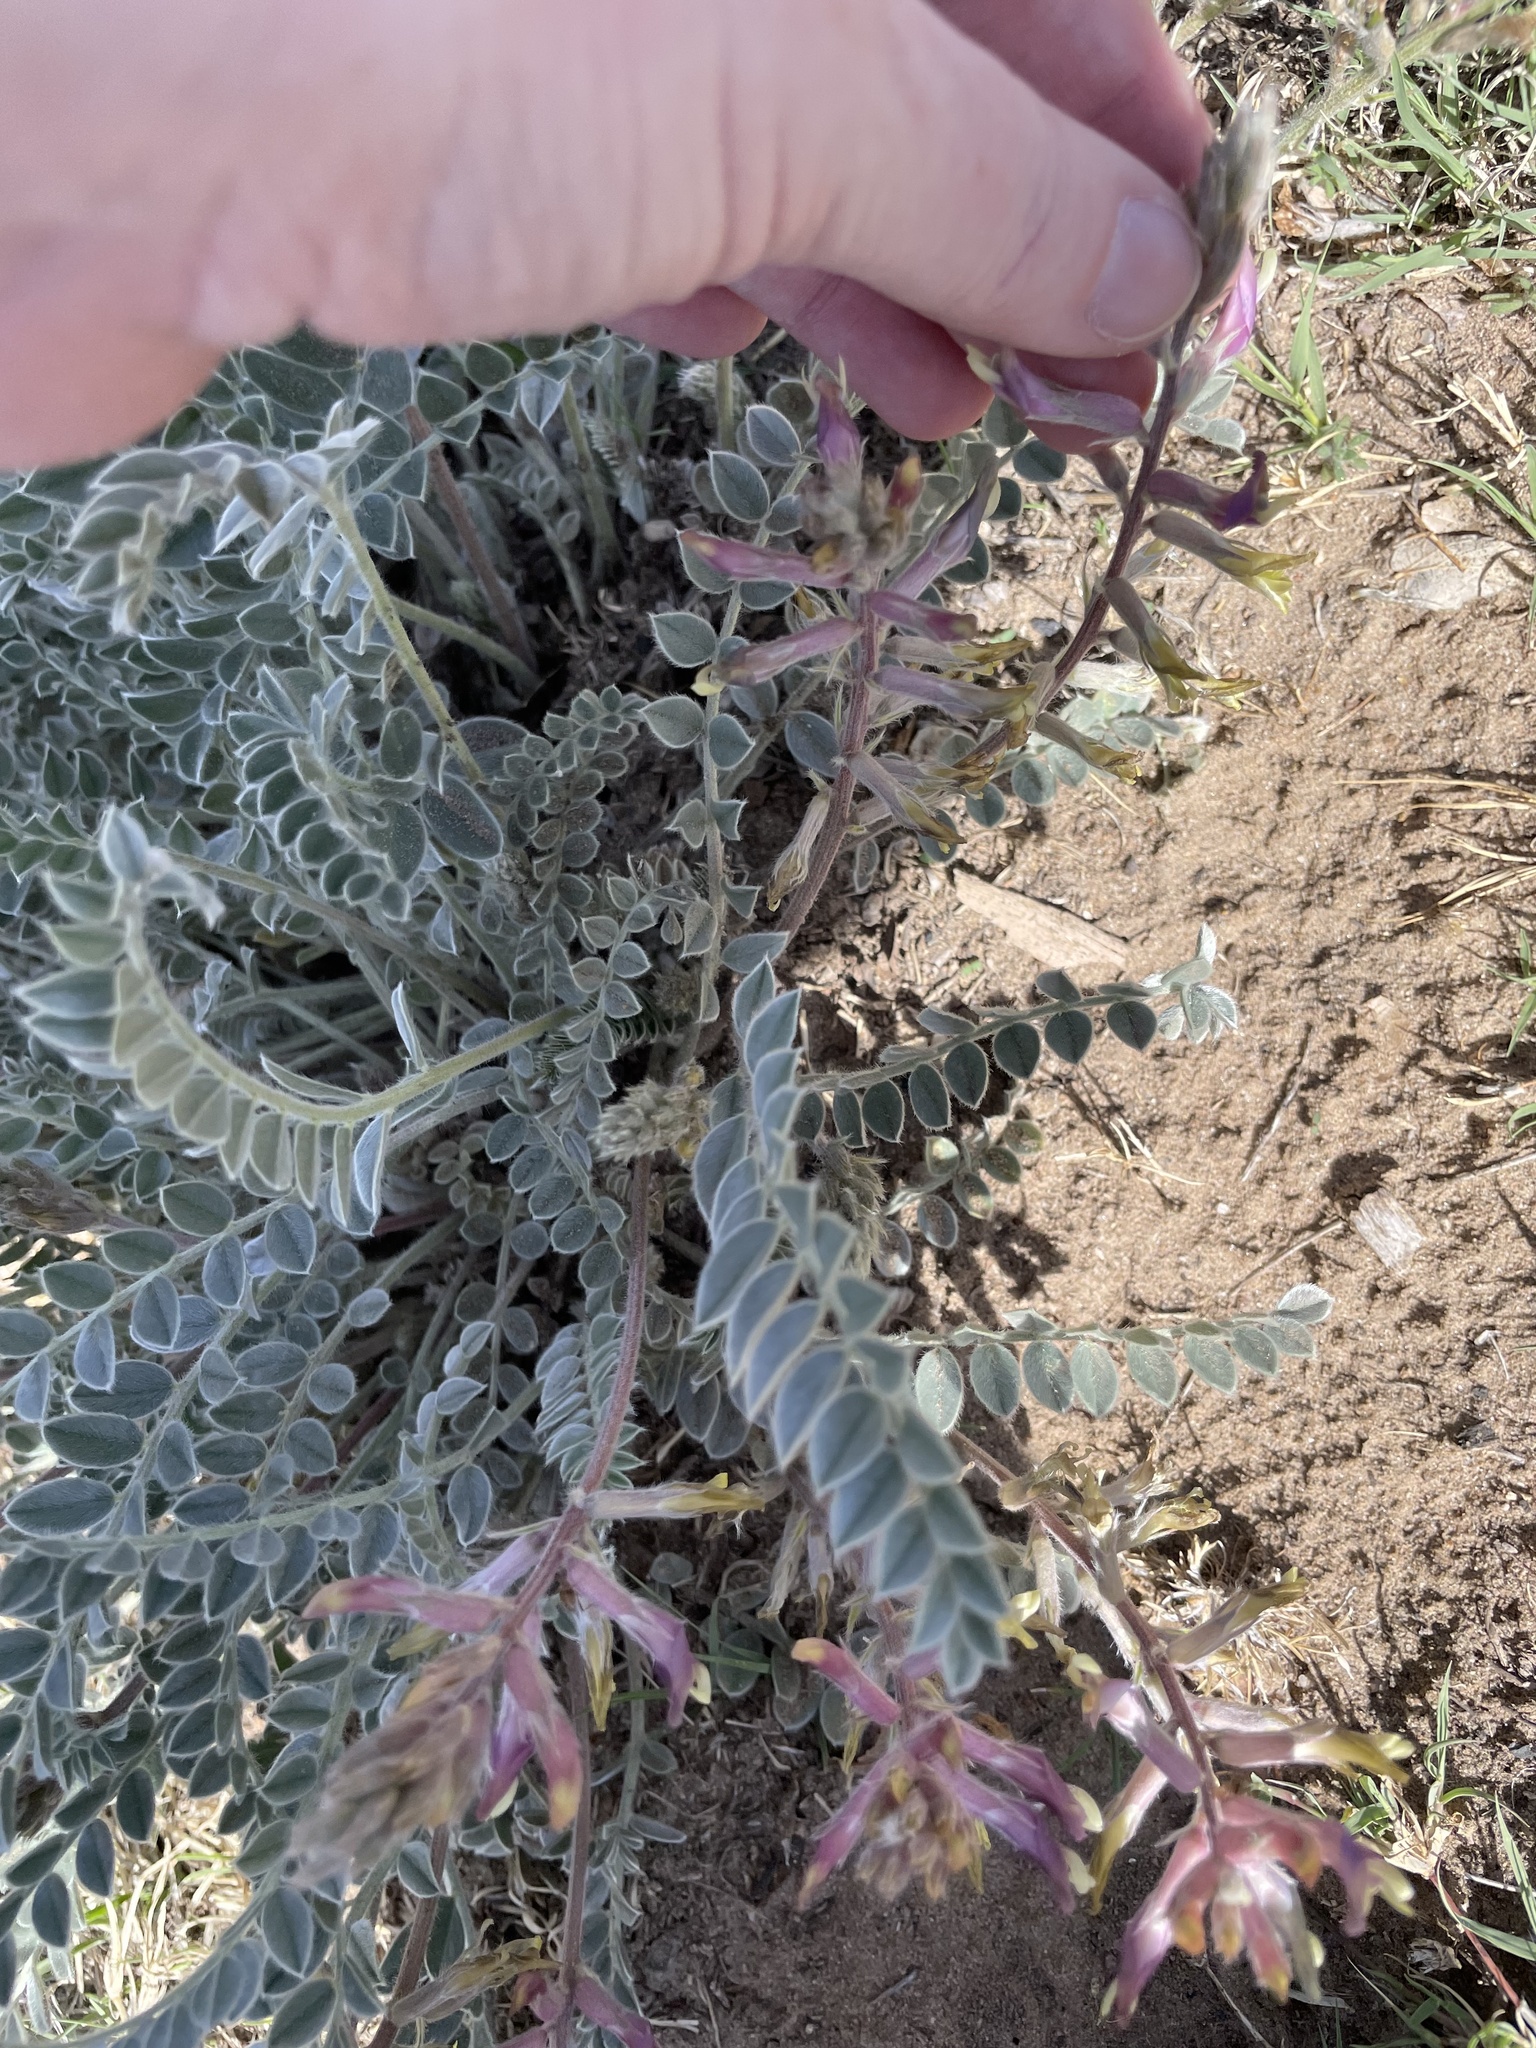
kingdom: Plantae
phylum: Tracheophyta
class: Magnoliopsida
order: Fabales
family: Fabaceae
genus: Astragalus
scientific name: Astragalus mollissimus
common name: Woolly locoweed
